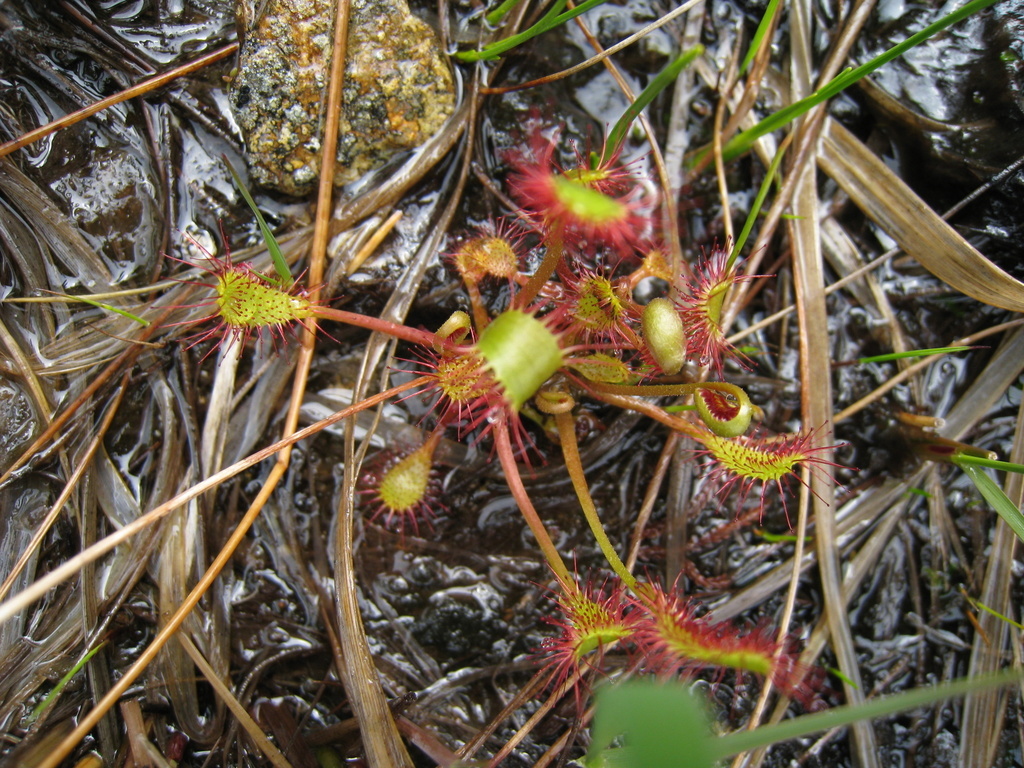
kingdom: Plantae
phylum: Tracheophyta
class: Magnoliopsida
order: Caryophyllales
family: Droseraceae
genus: Drosera
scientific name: Drosera anglica
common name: Great sundew
